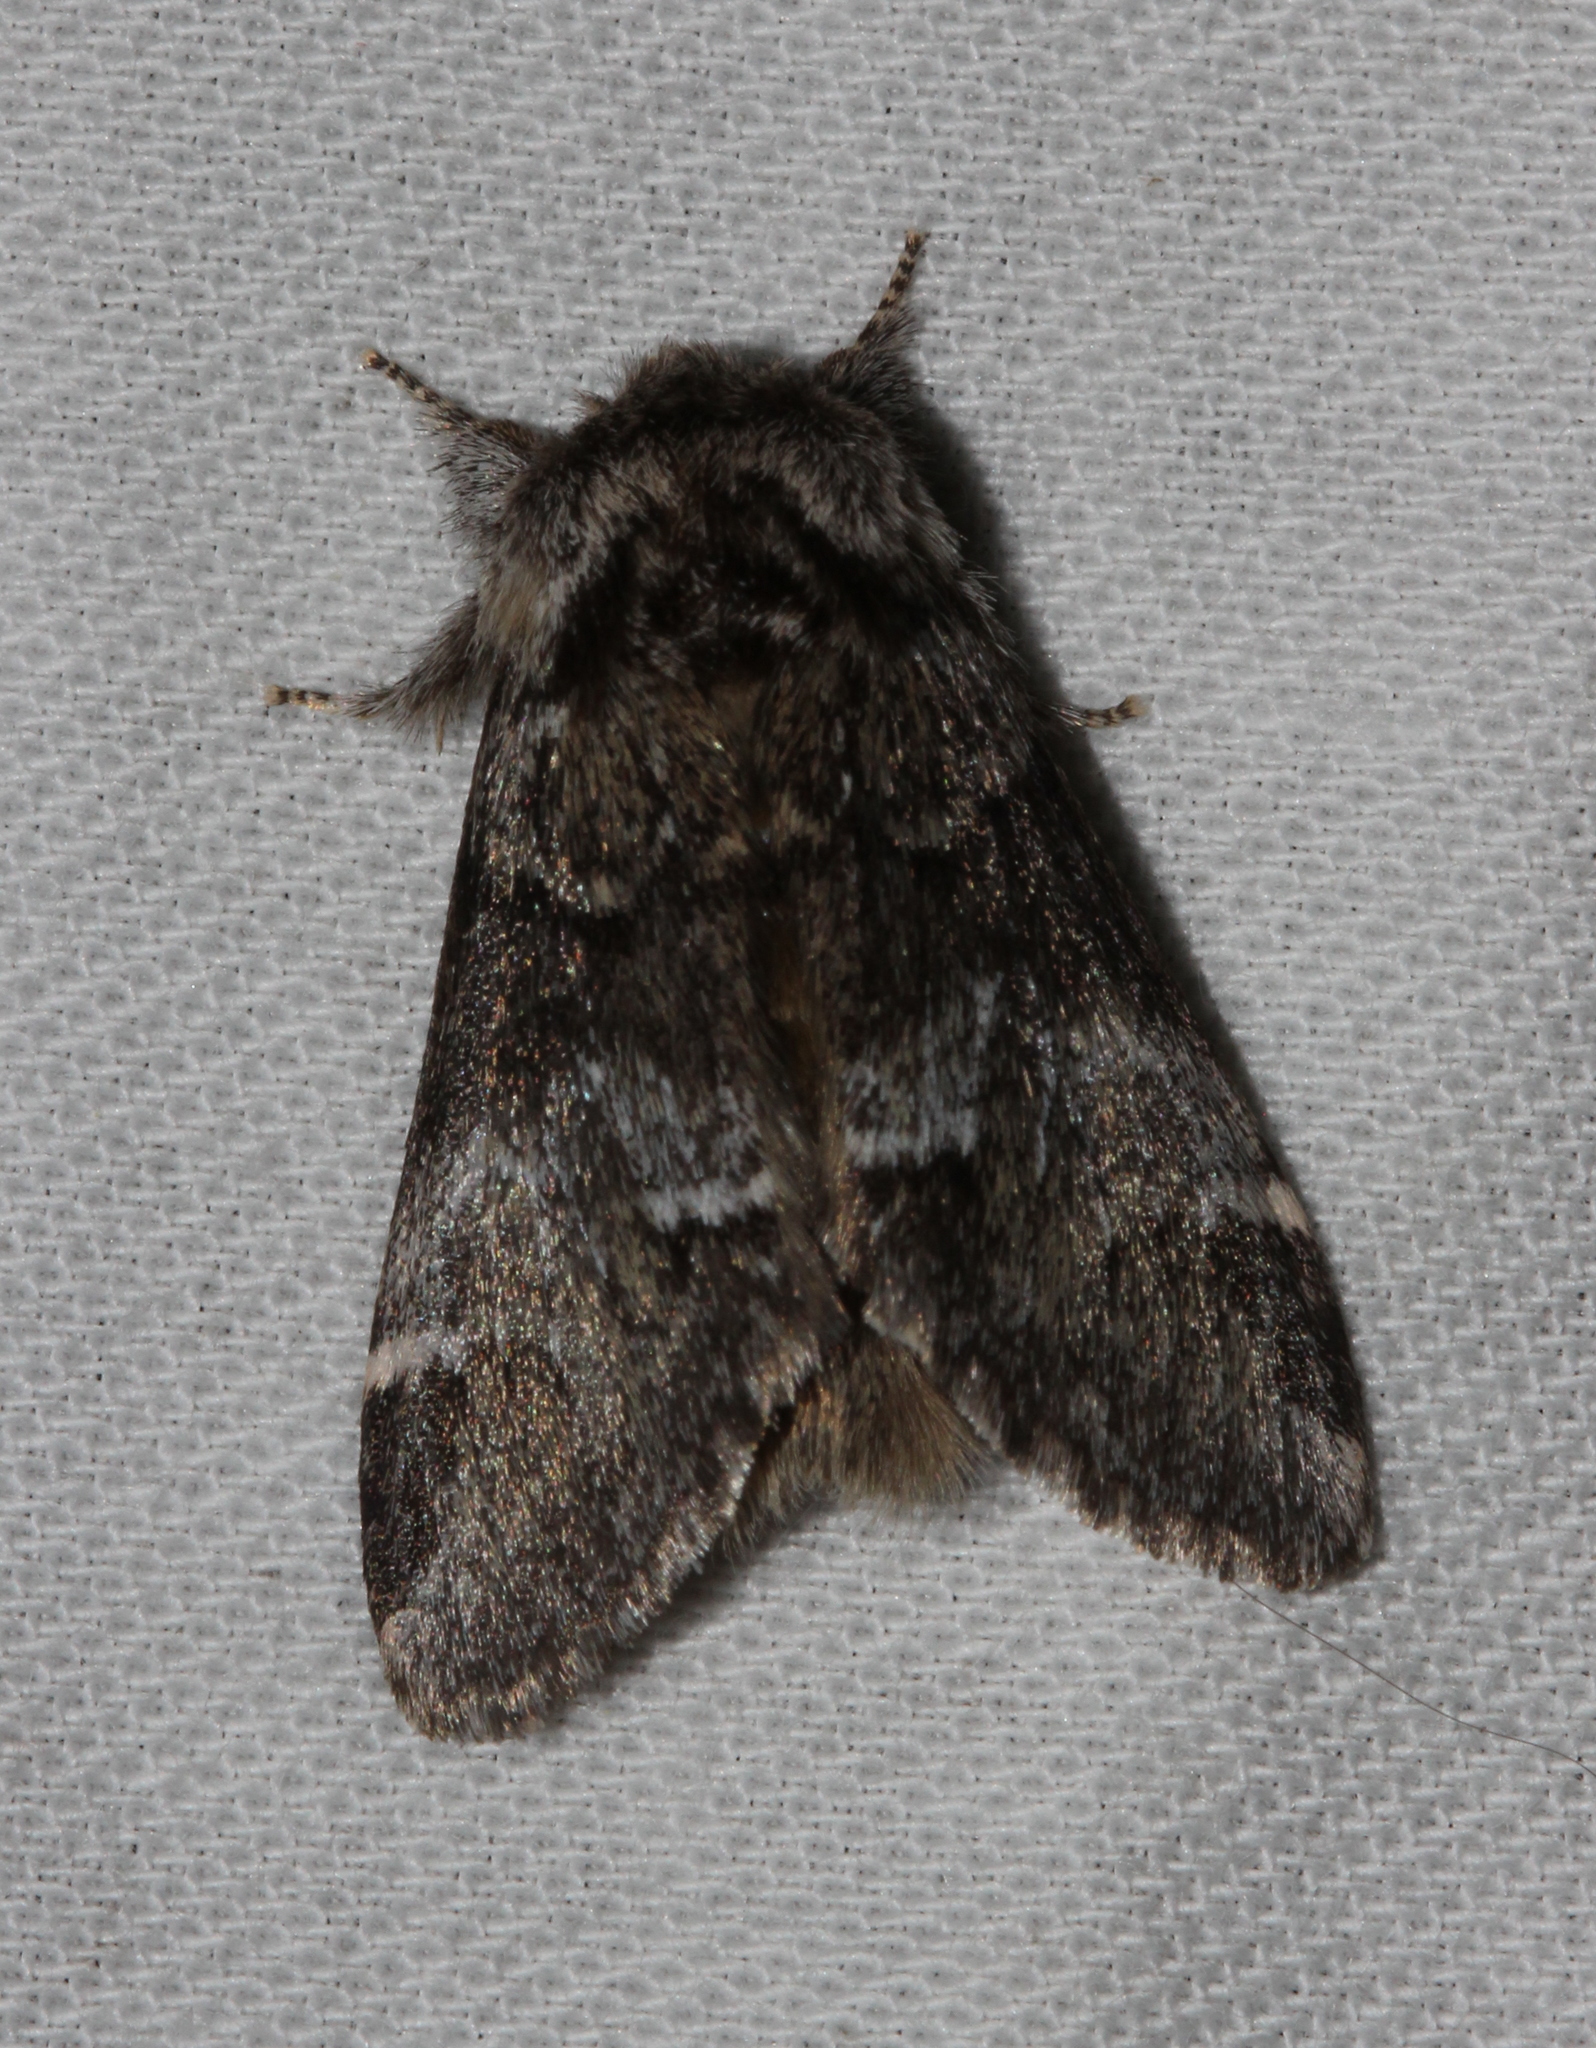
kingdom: Animalia
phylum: Arthropoda
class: Insecta
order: Lepidoptera
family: Notodontidae
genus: Drymonia
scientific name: Drymonia dodonaea
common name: Marbled brown
